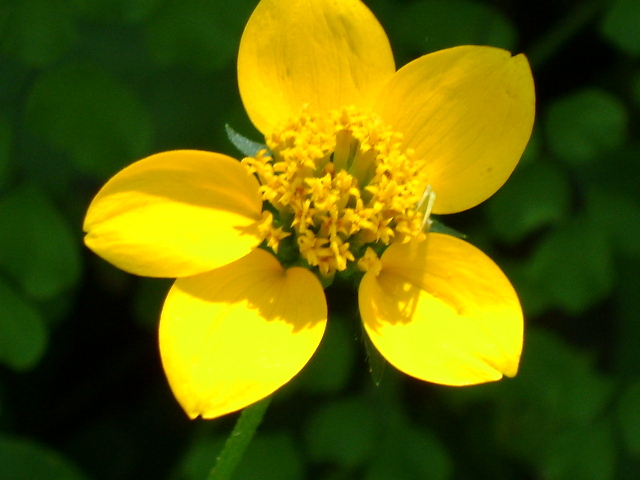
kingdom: Plantae
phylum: Tracheophyta
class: Magnoliopsida
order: Asterales
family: Asteraceae
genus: Sclerocarpus
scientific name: Sclerocarpus uniserialis
